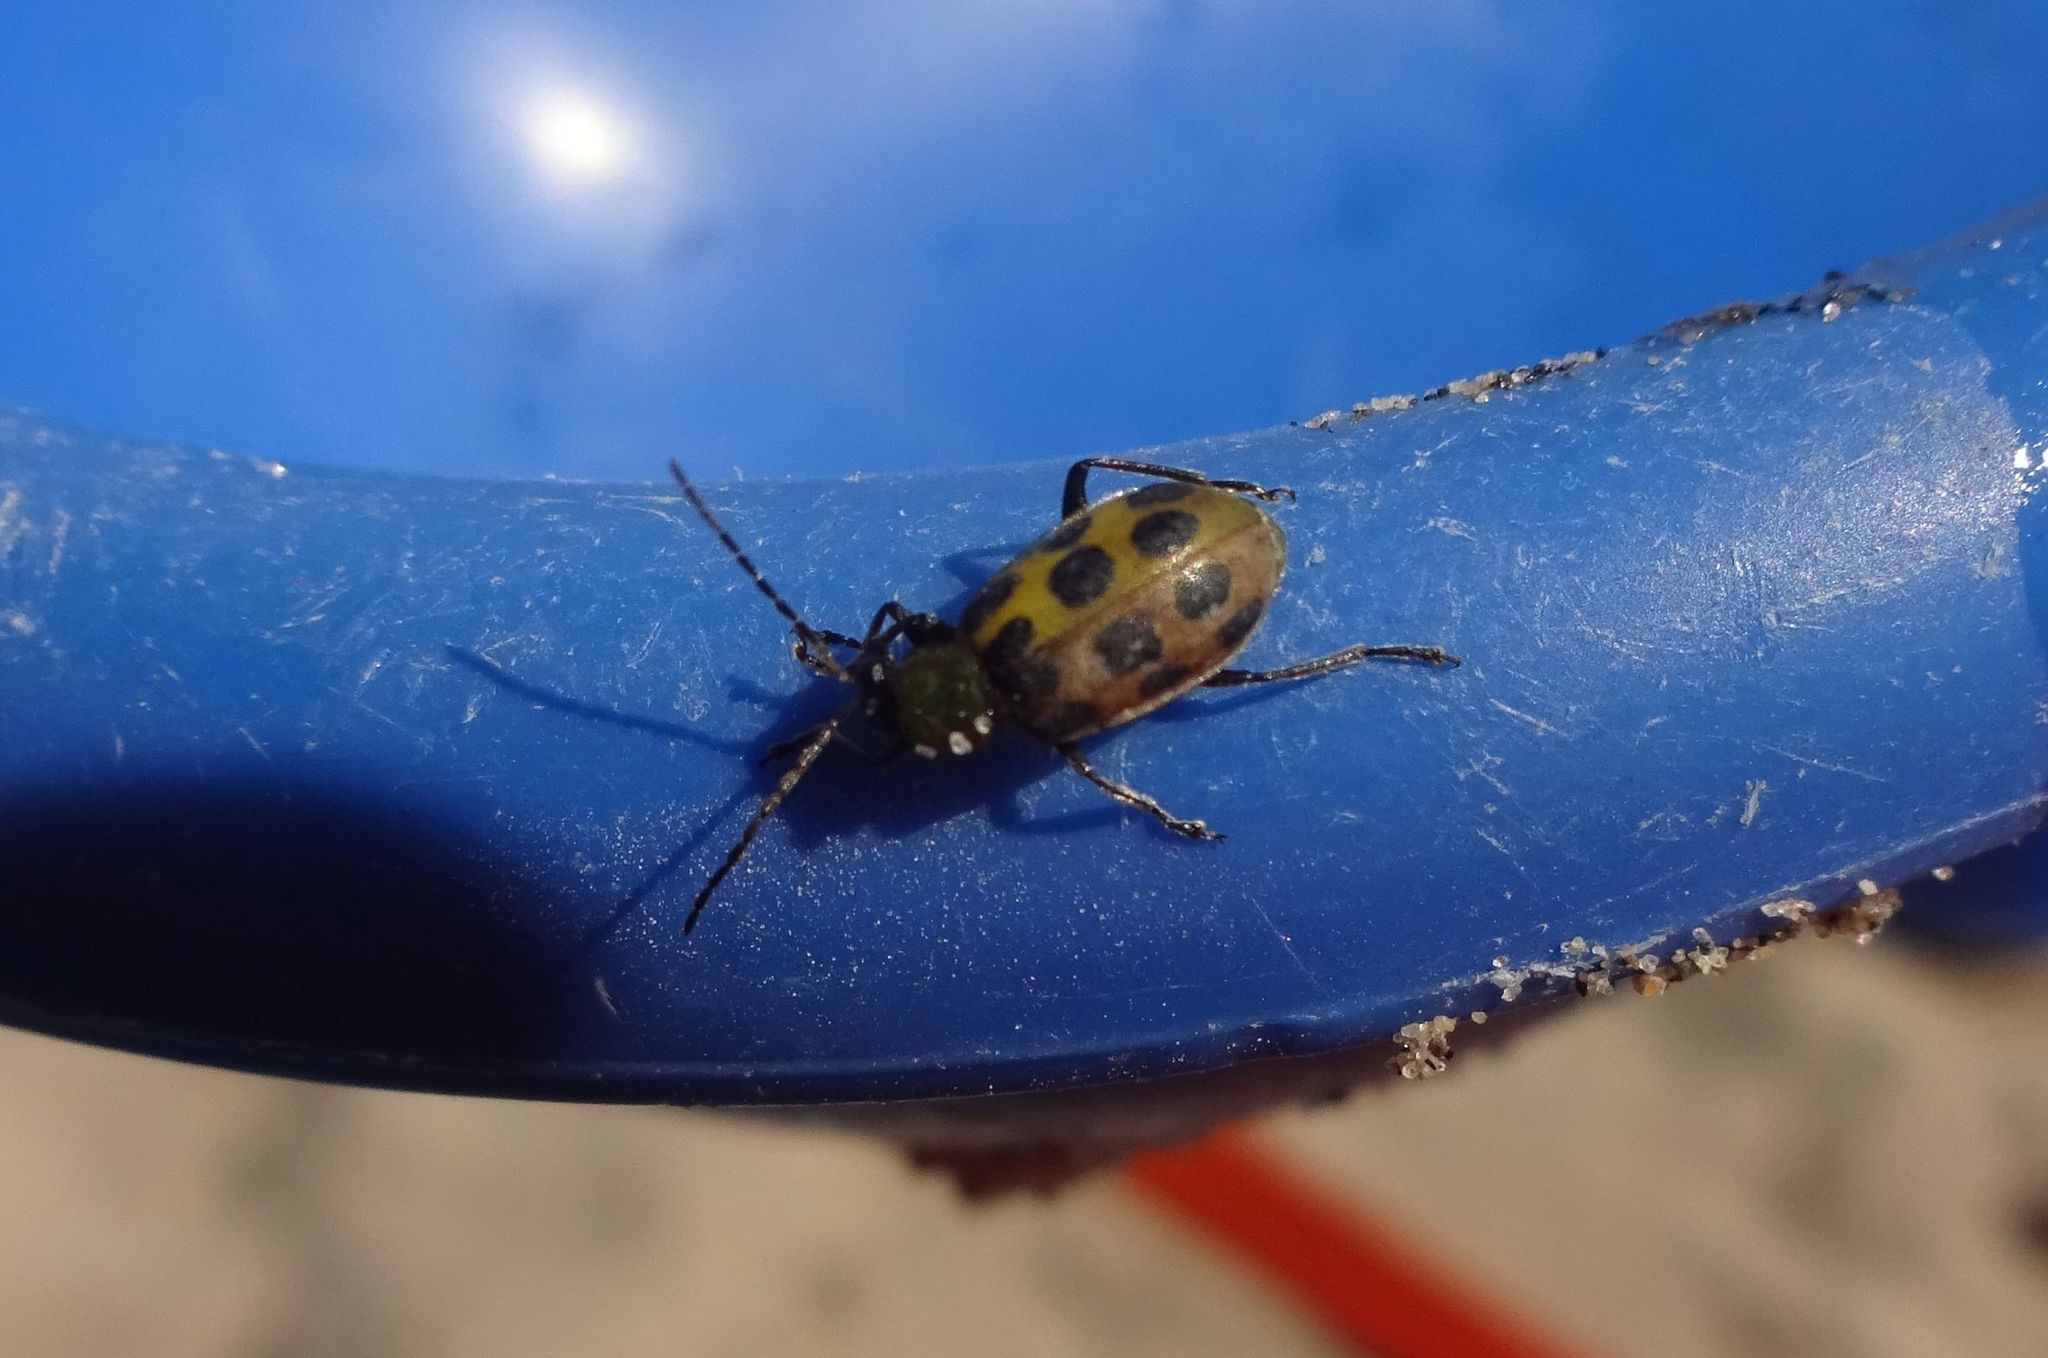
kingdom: Animalia
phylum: Arthropoda
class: Insecta
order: Coleoptera
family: Chrysomelidae
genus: Diabrotica
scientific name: Diabrotica undecimpunctata
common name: Spotted cucumber beetle
